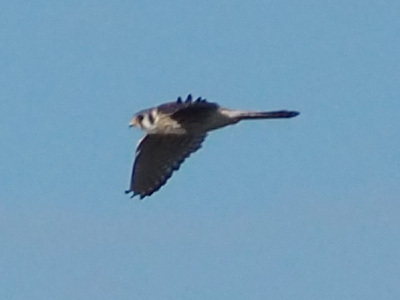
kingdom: Animalia
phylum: Chordata
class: Aves
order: Falconiformes
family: Falconidae
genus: Falco
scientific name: Falco sparverius
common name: American kestrel
